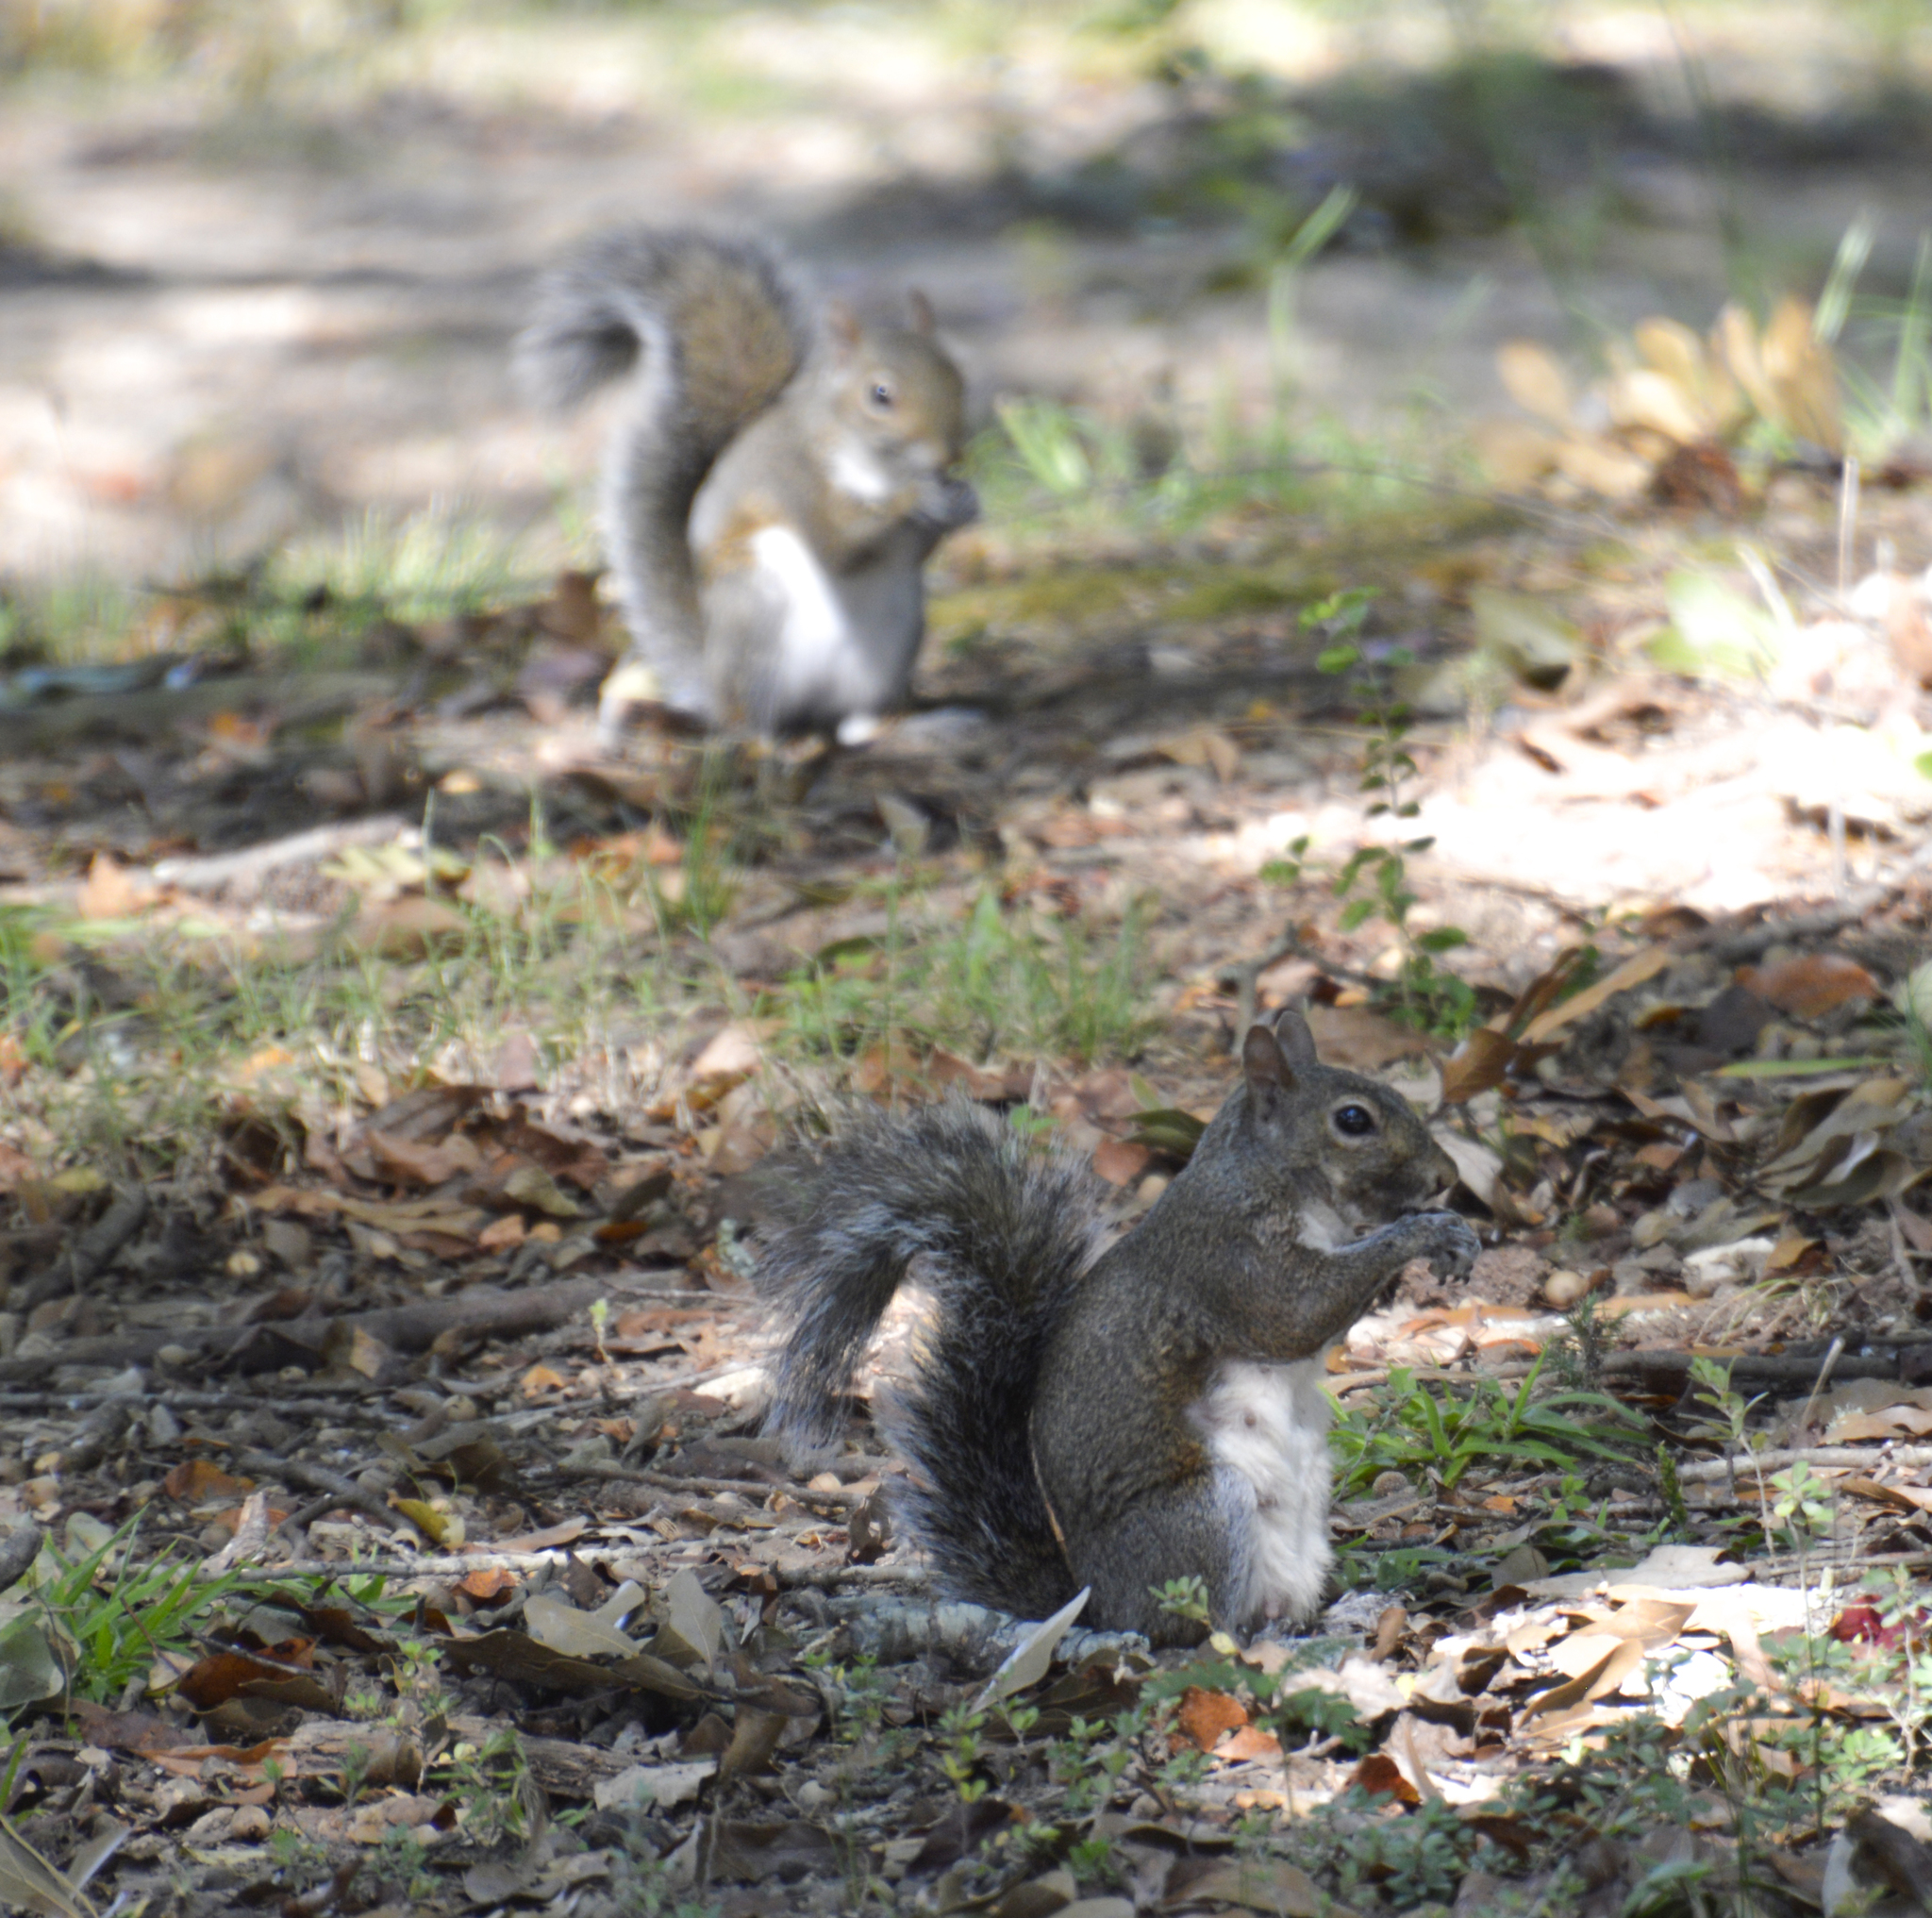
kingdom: Animalia
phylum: Chordata
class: Mammalia
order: Rodentia
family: Sciuridae
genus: Sciurus
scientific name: Sciurus carolinensis
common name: Eastern gray squirrel
